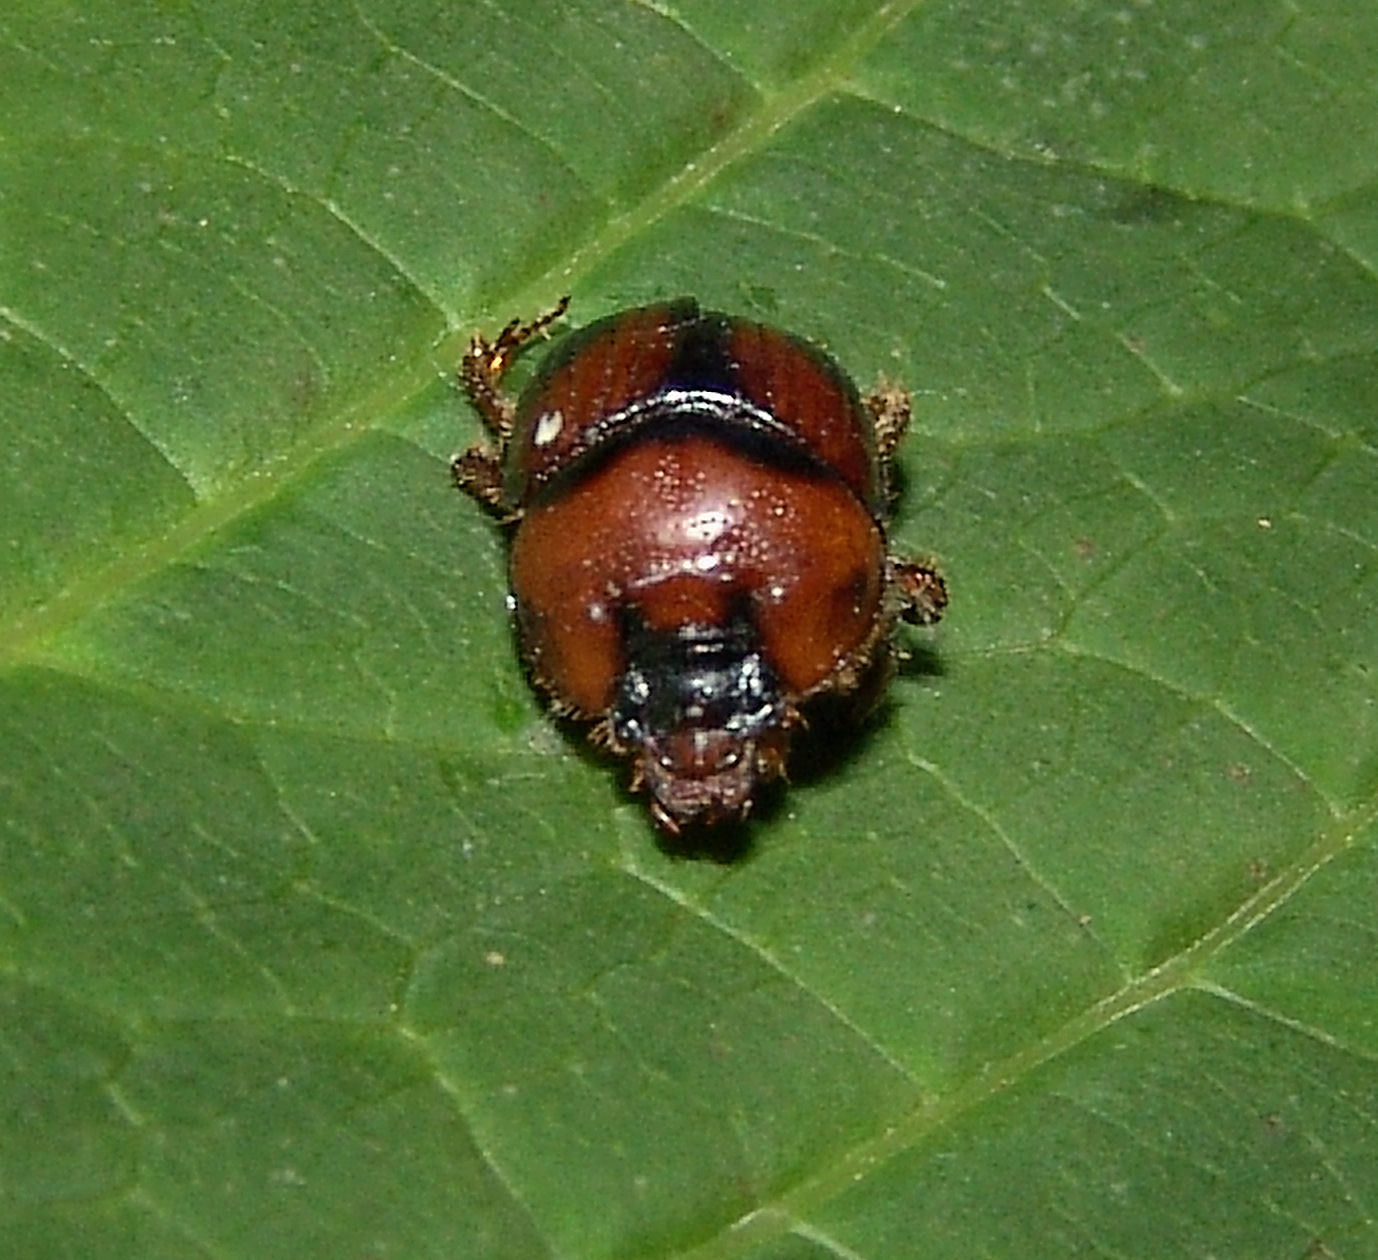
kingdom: Animalia
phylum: Arthropoda
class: Insecta
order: Coleoptera
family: Geotrupidae
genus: Bolbocerosoma
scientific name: Bolbocerosoma lepidissimum
